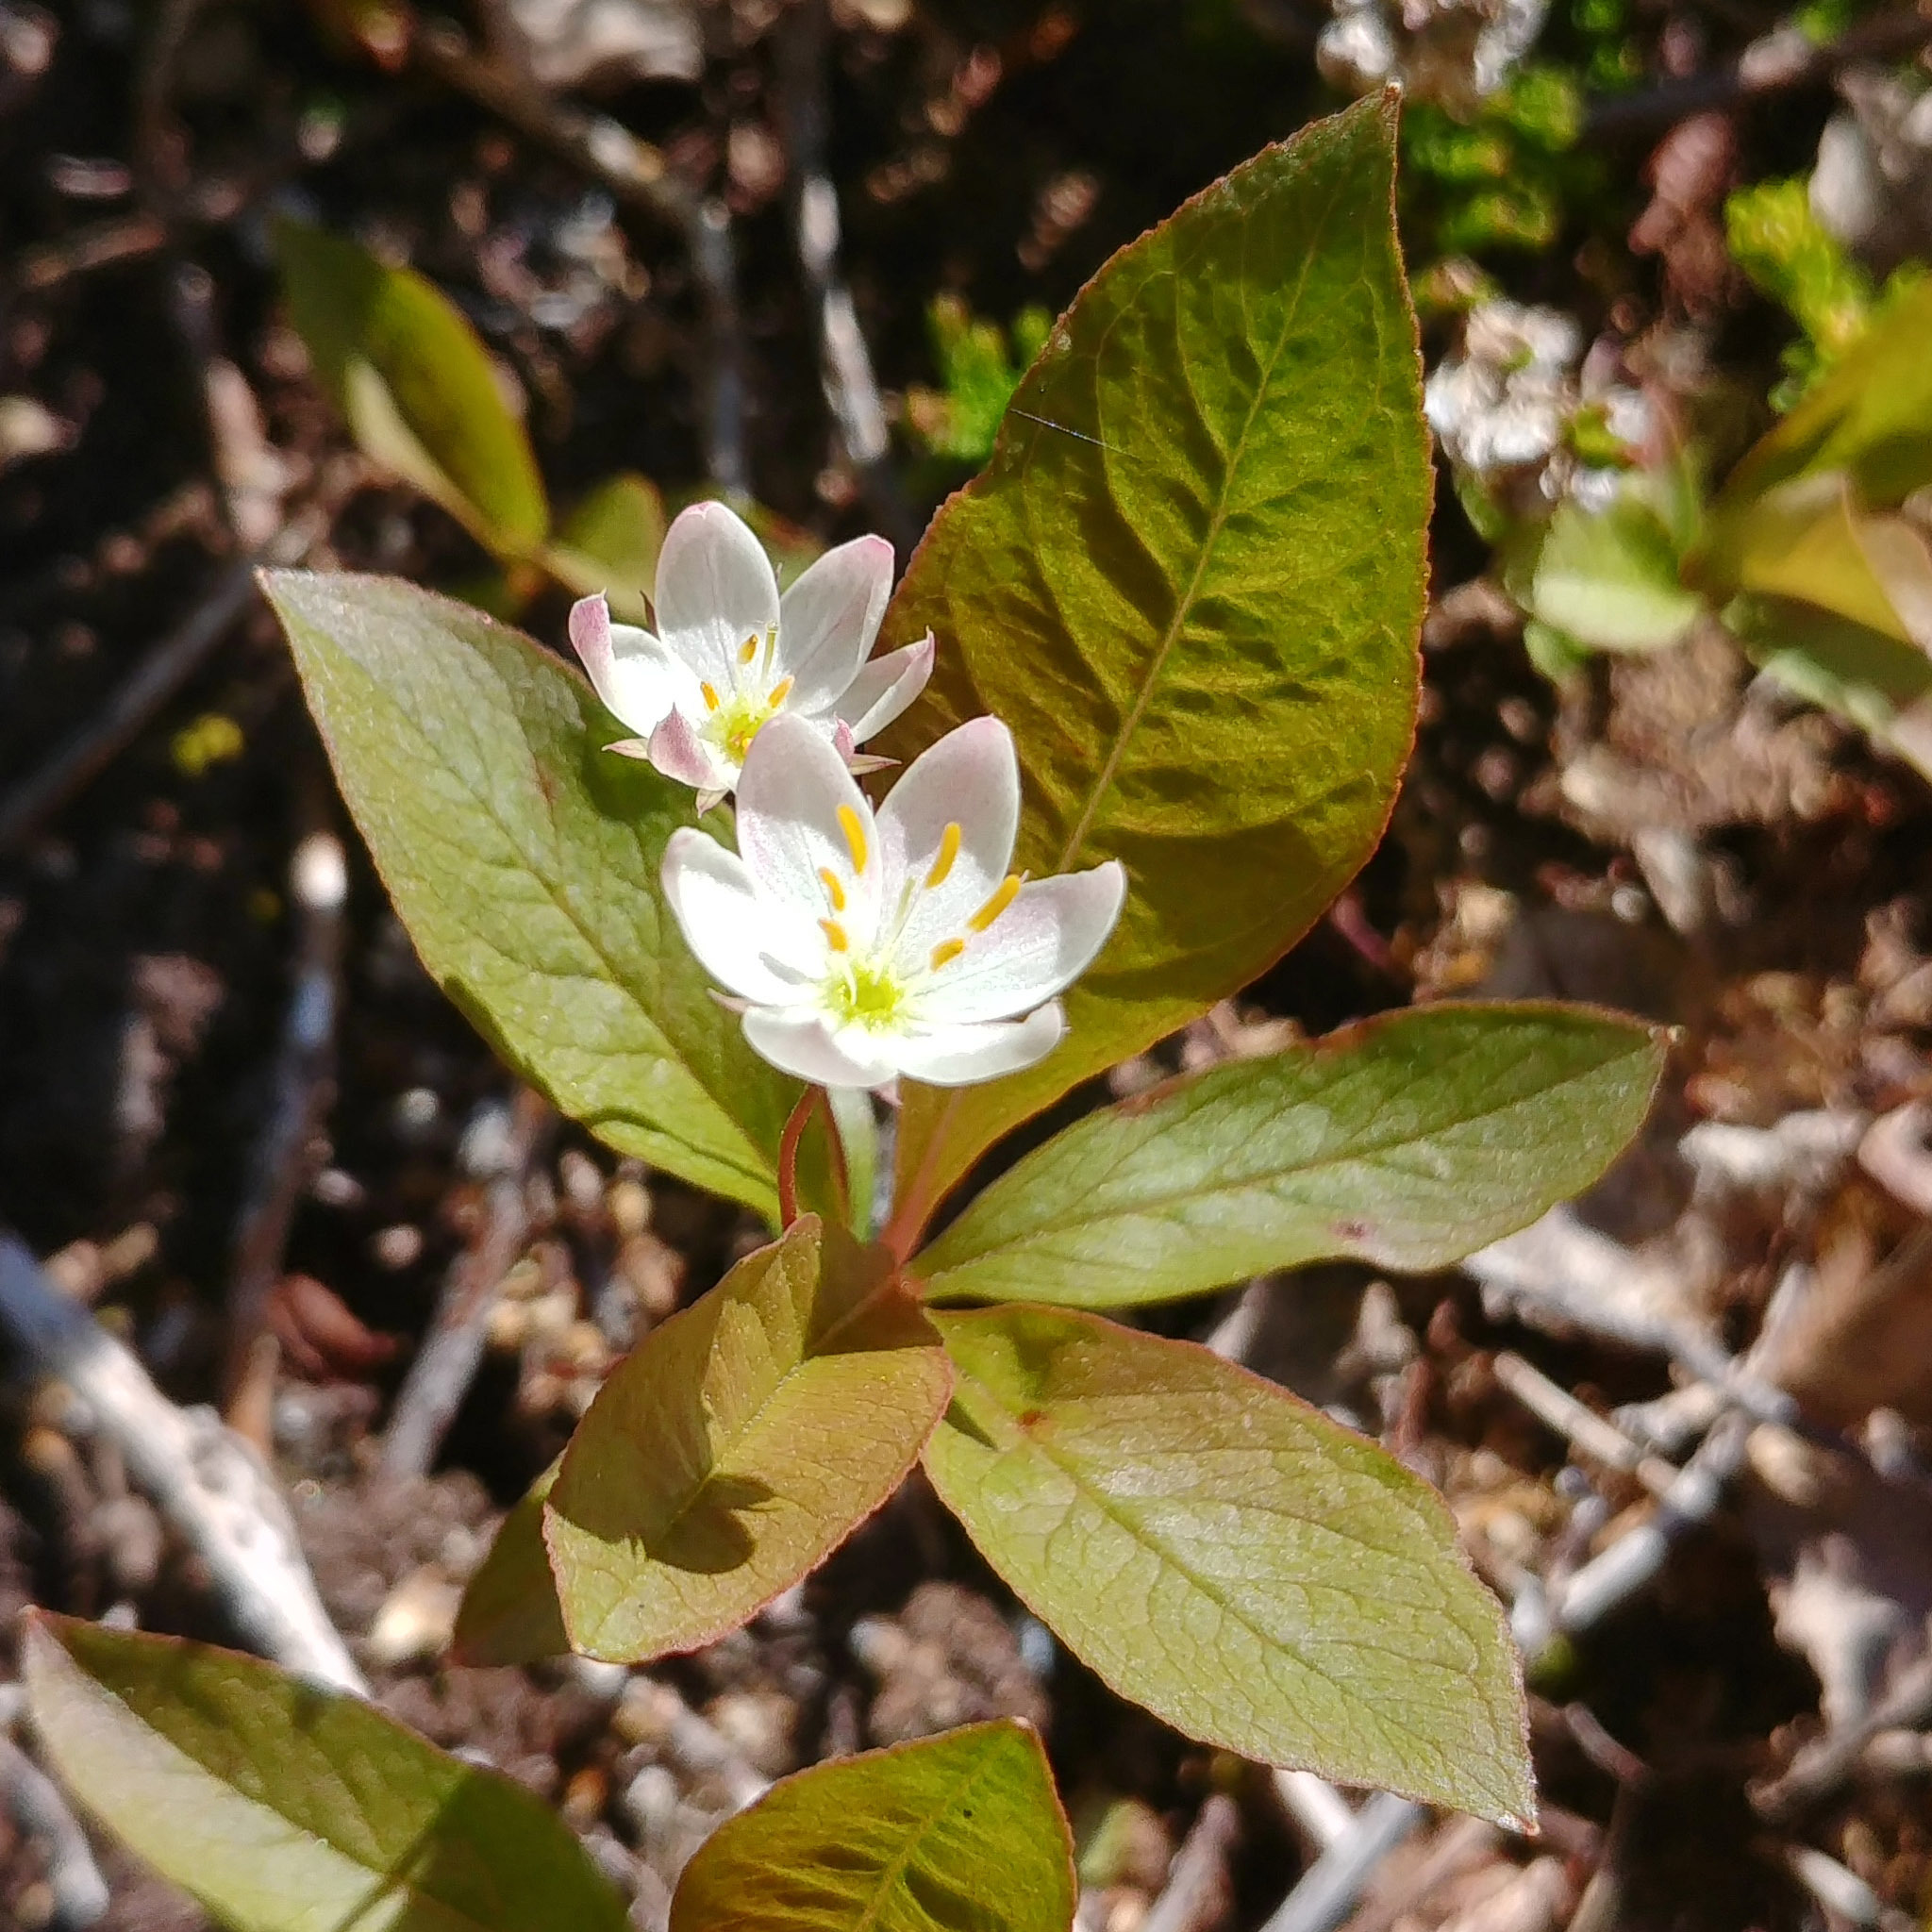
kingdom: Plantae
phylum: Tracheophyta
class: Magnoliopsida
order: Ericales
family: Primulaceae
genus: Lysimachia
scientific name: Lysimachia europaea
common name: Arctic starflower
